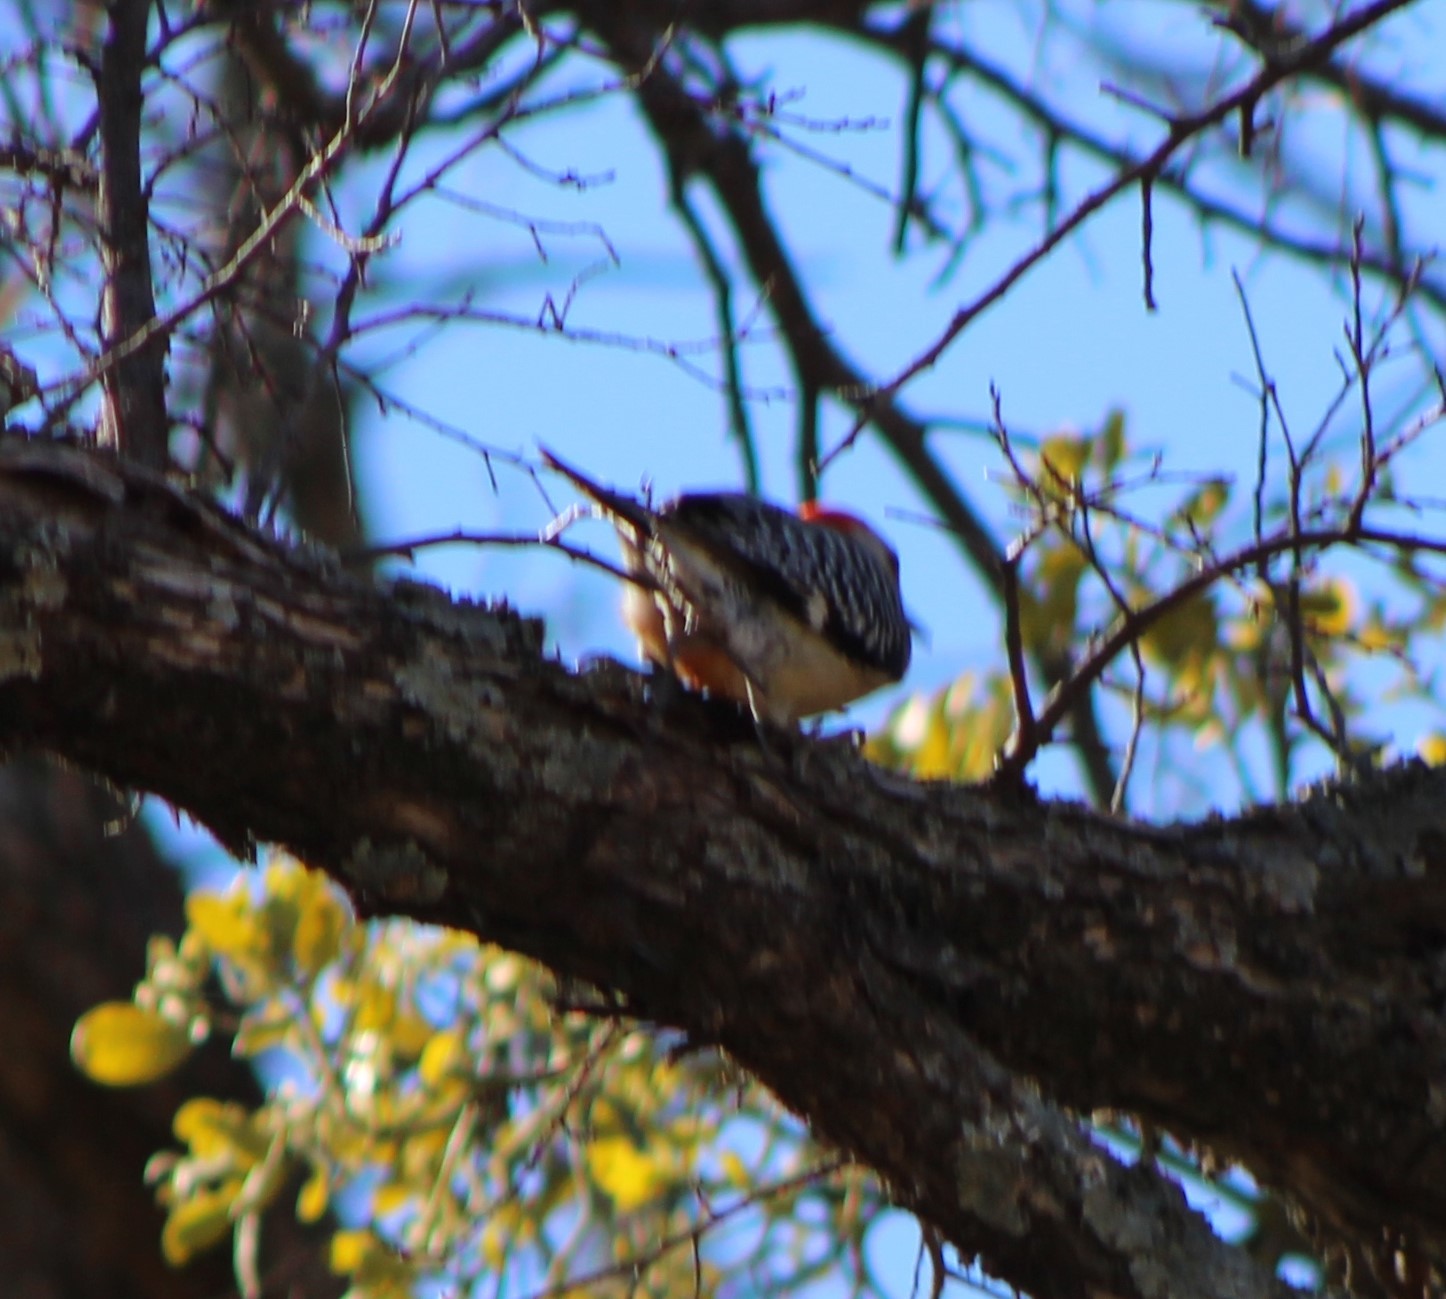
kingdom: Animalia
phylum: Chordata
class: Aves
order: Piciformes
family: Picidae
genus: Melanerpes
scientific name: Melanerpes carolinus
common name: Red-bellied woodpecker
